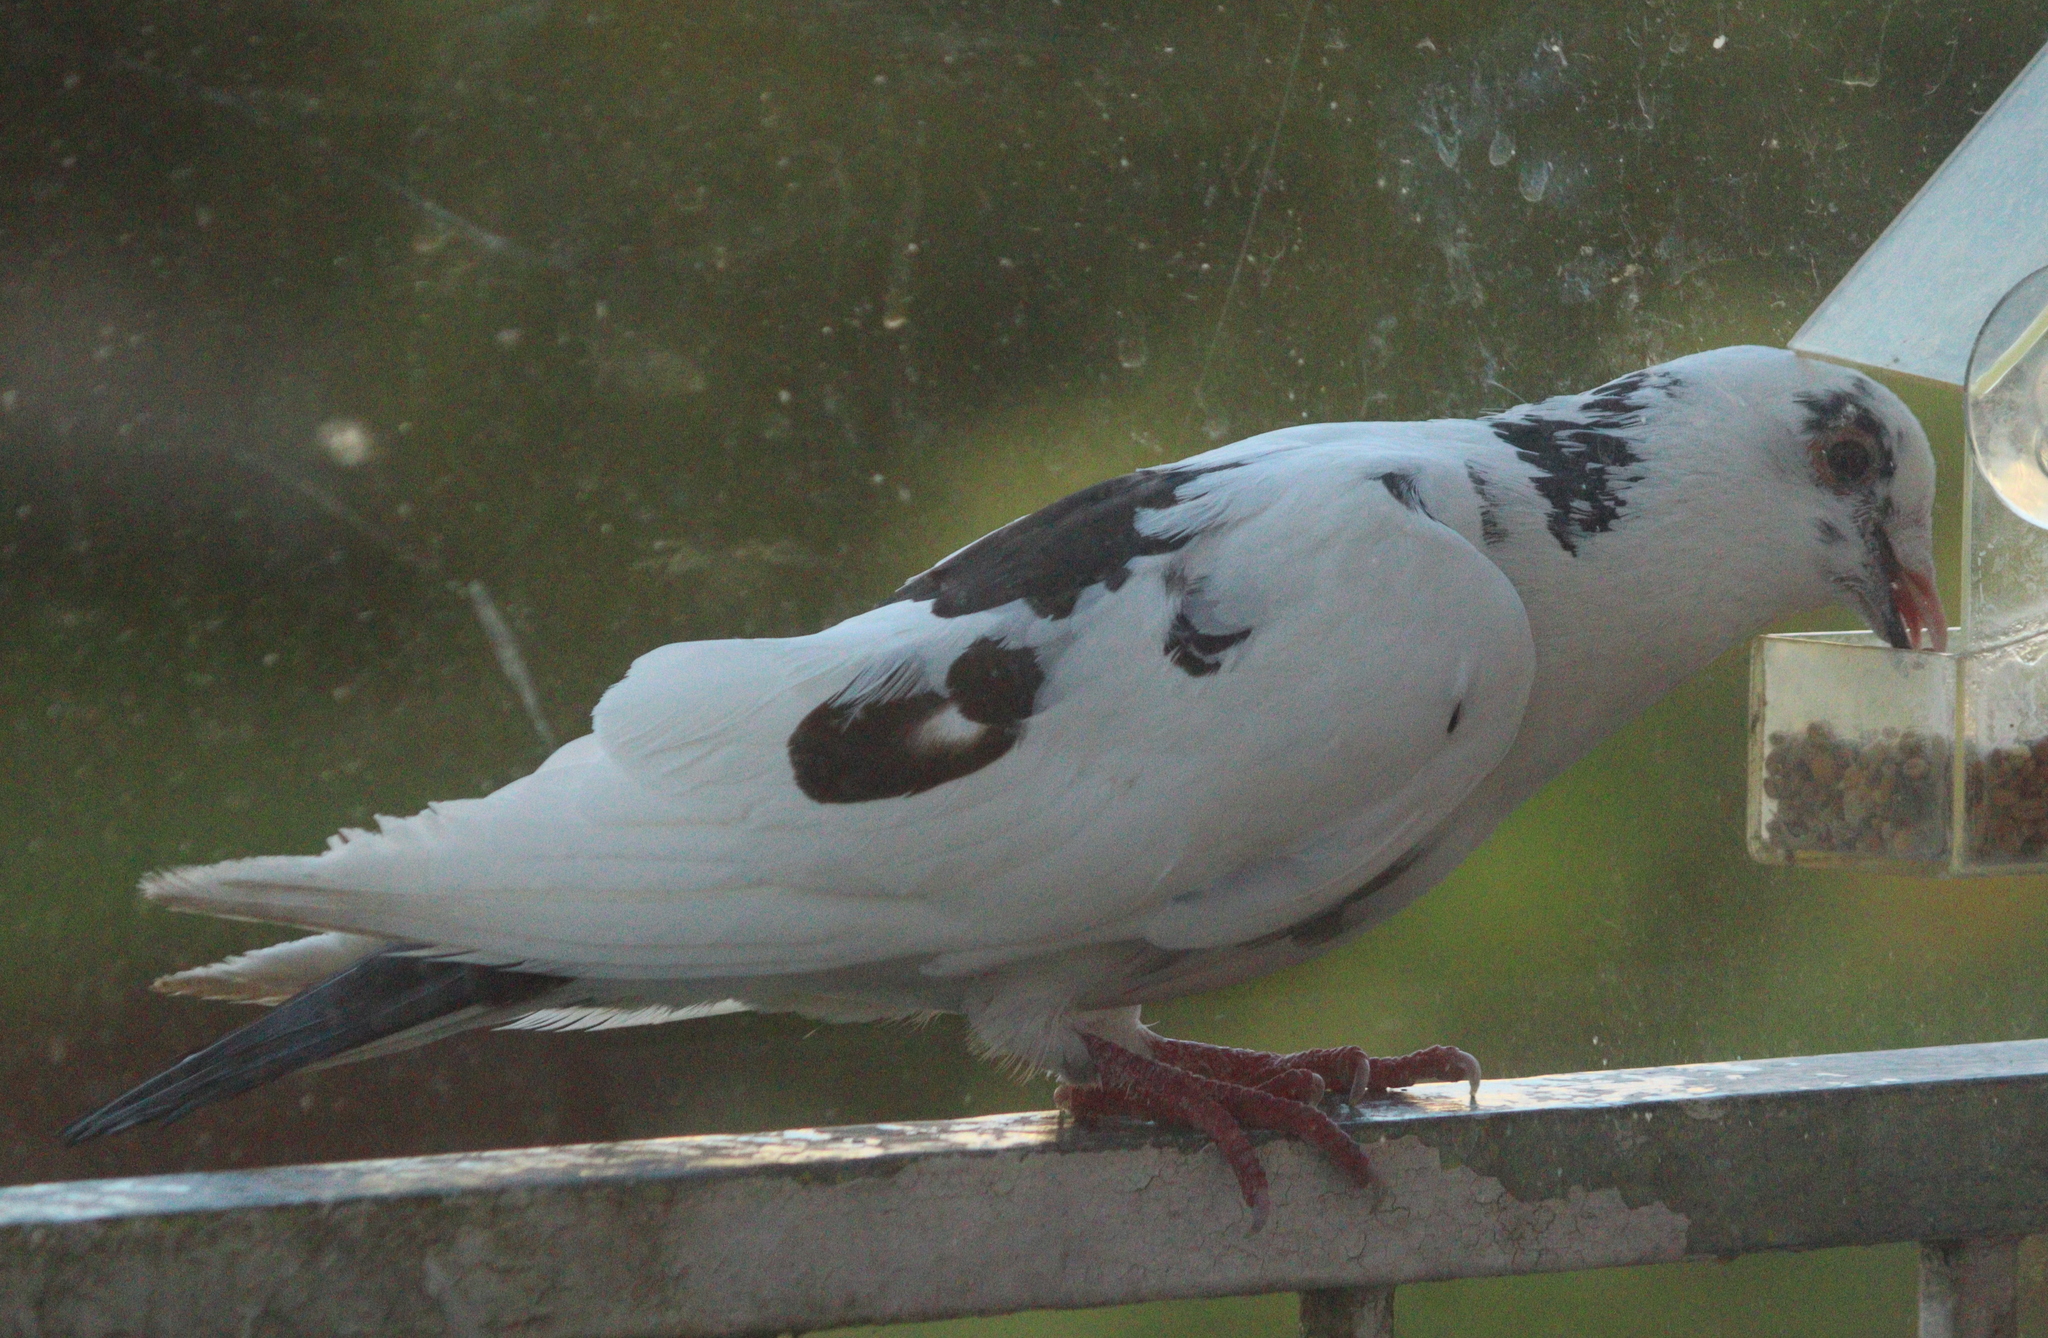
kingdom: Animalia
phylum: Chordata
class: Aves
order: Columbiformes
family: Columbidae
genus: Columba
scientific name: Columba livia
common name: Rock pigeon
